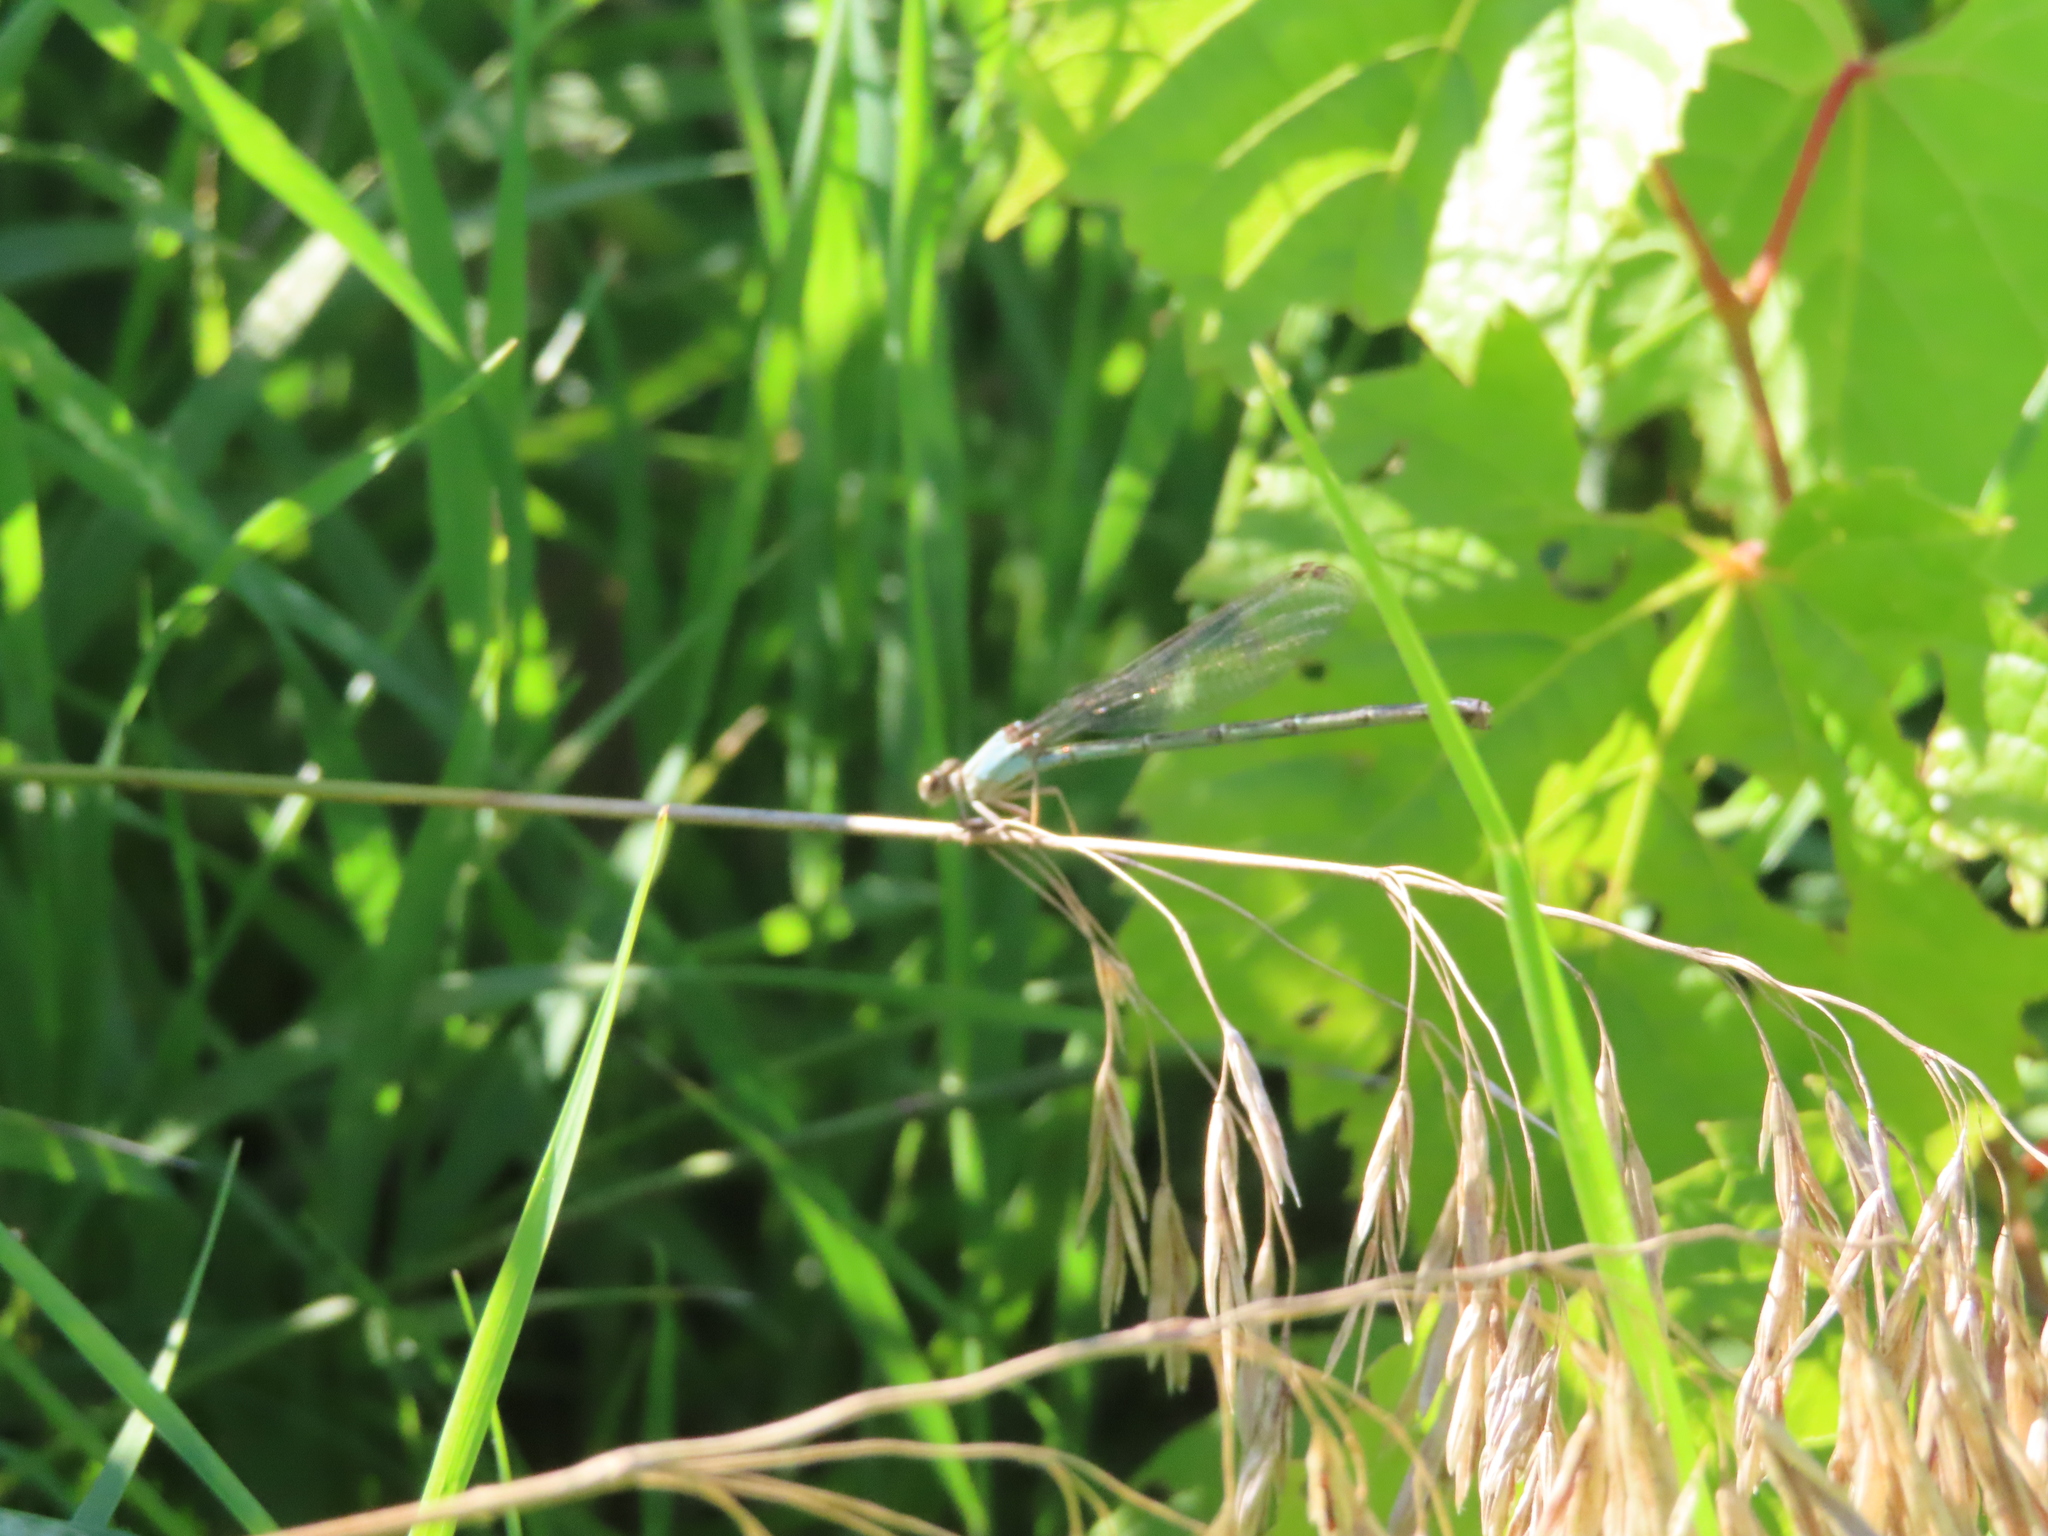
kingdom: Animalia
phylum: Arthropoda
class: Insecta
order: Odonata
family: Coenagrionidae
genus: Argia
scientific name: Argia apicalis
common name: Blue-fronted dancer
